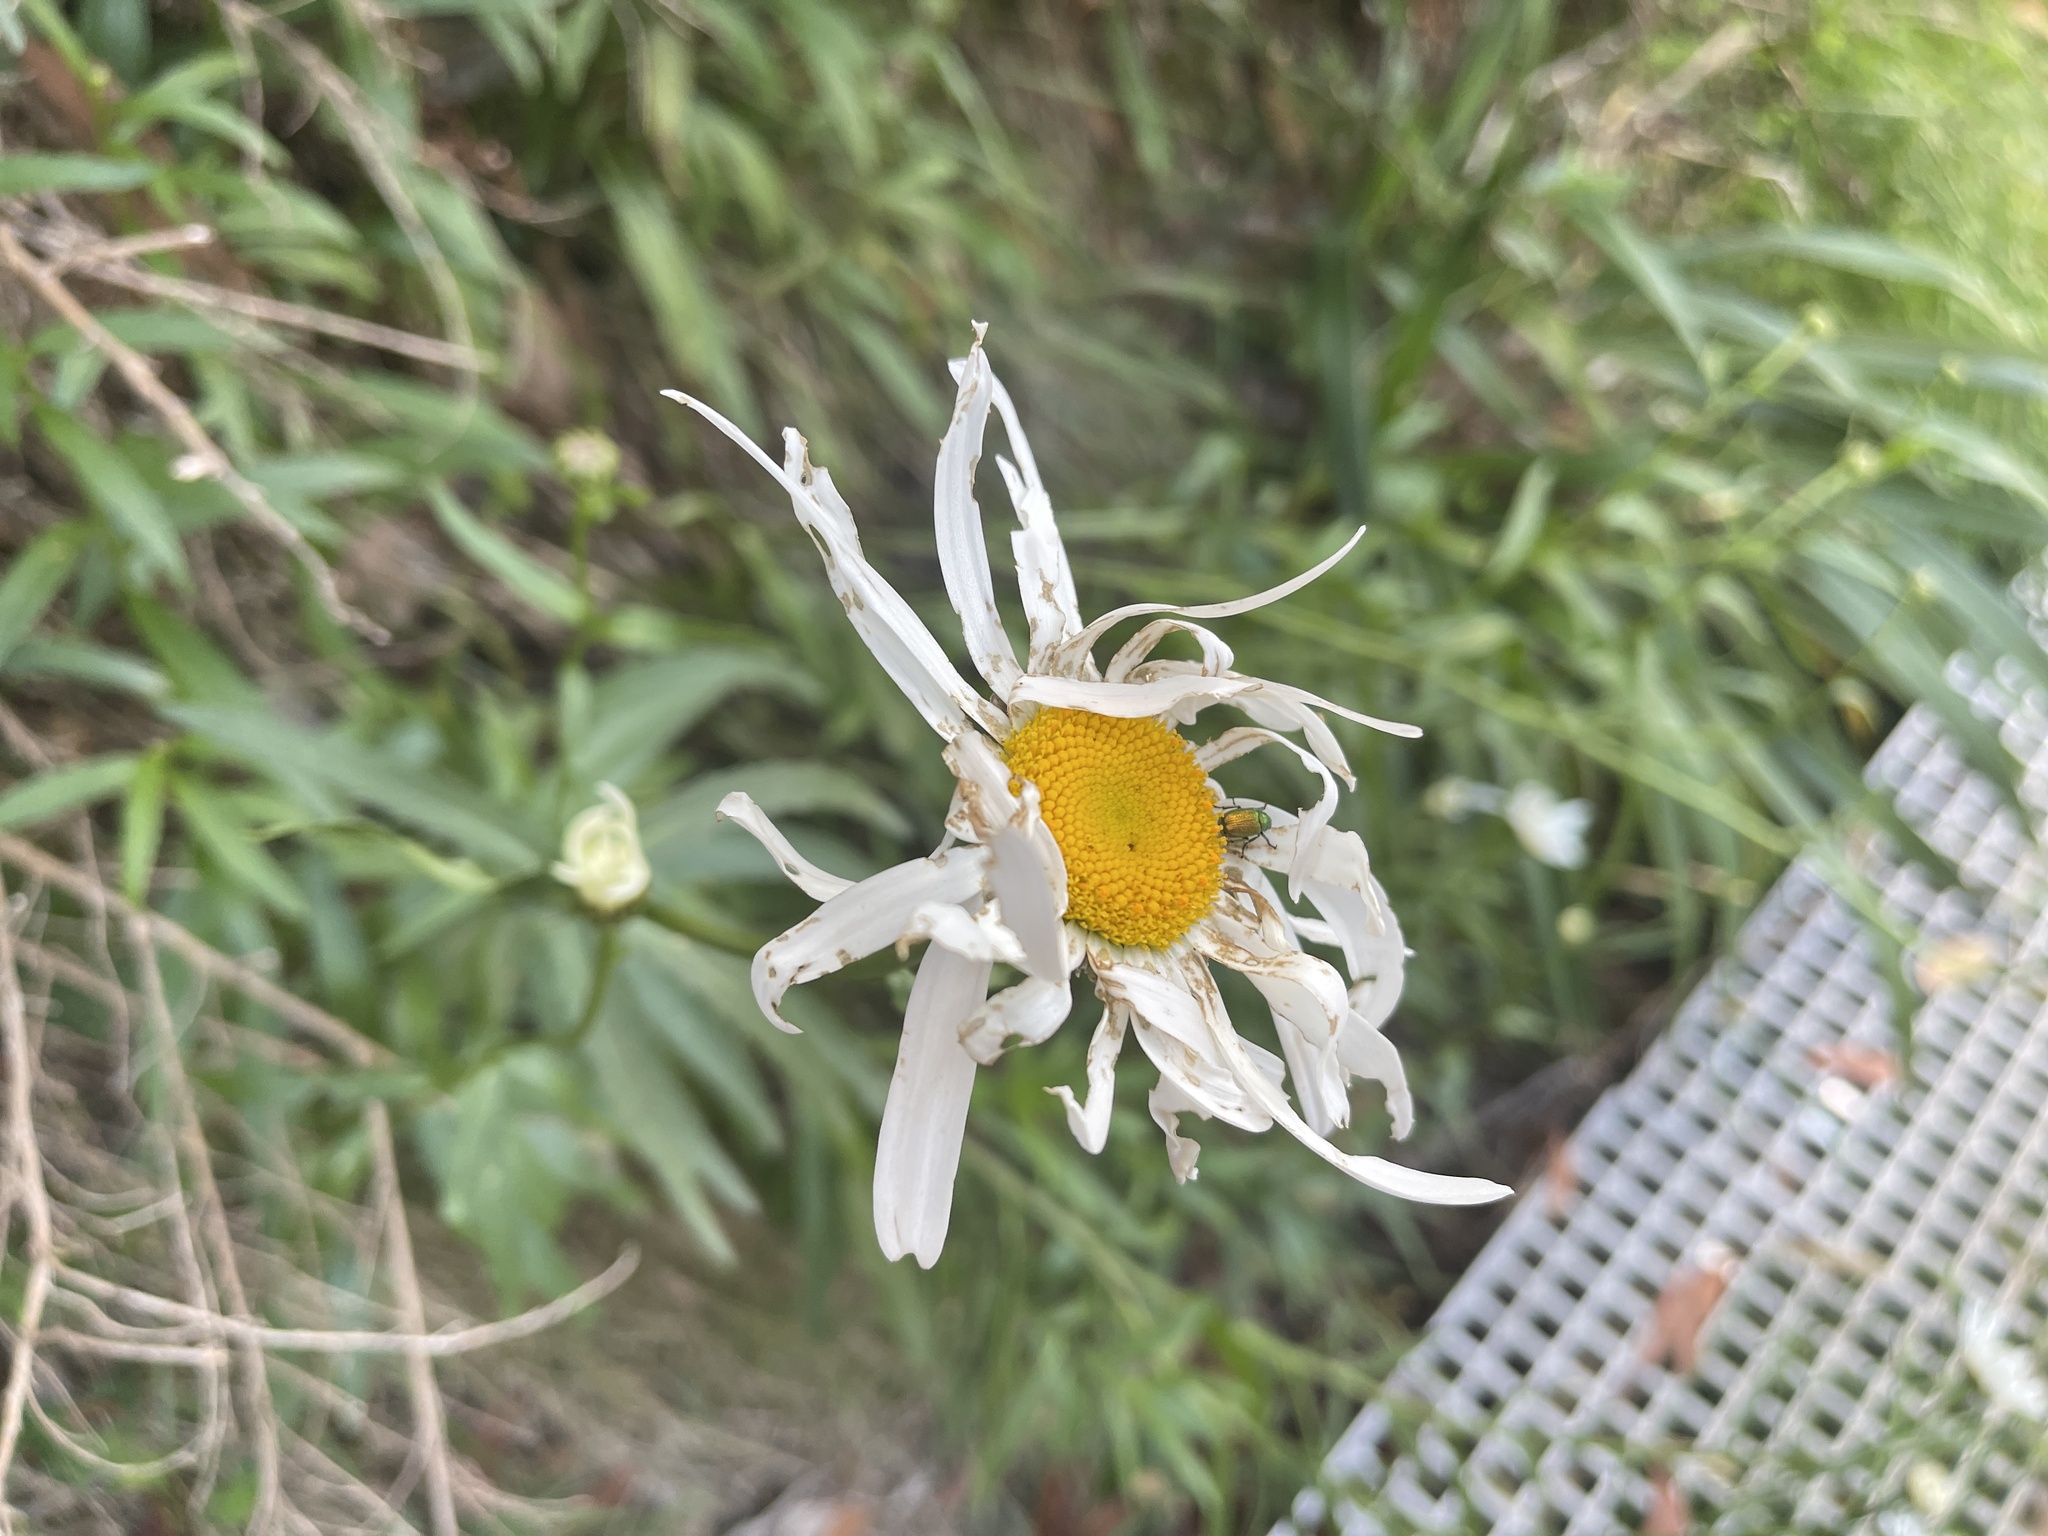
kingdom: Plantae
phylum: Tracheophyta
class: Magnoliopsida
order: Asterales
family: Asteraceae
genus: Leucanthemum
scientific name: Leucanthemum superbum
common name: Shasta daisy
